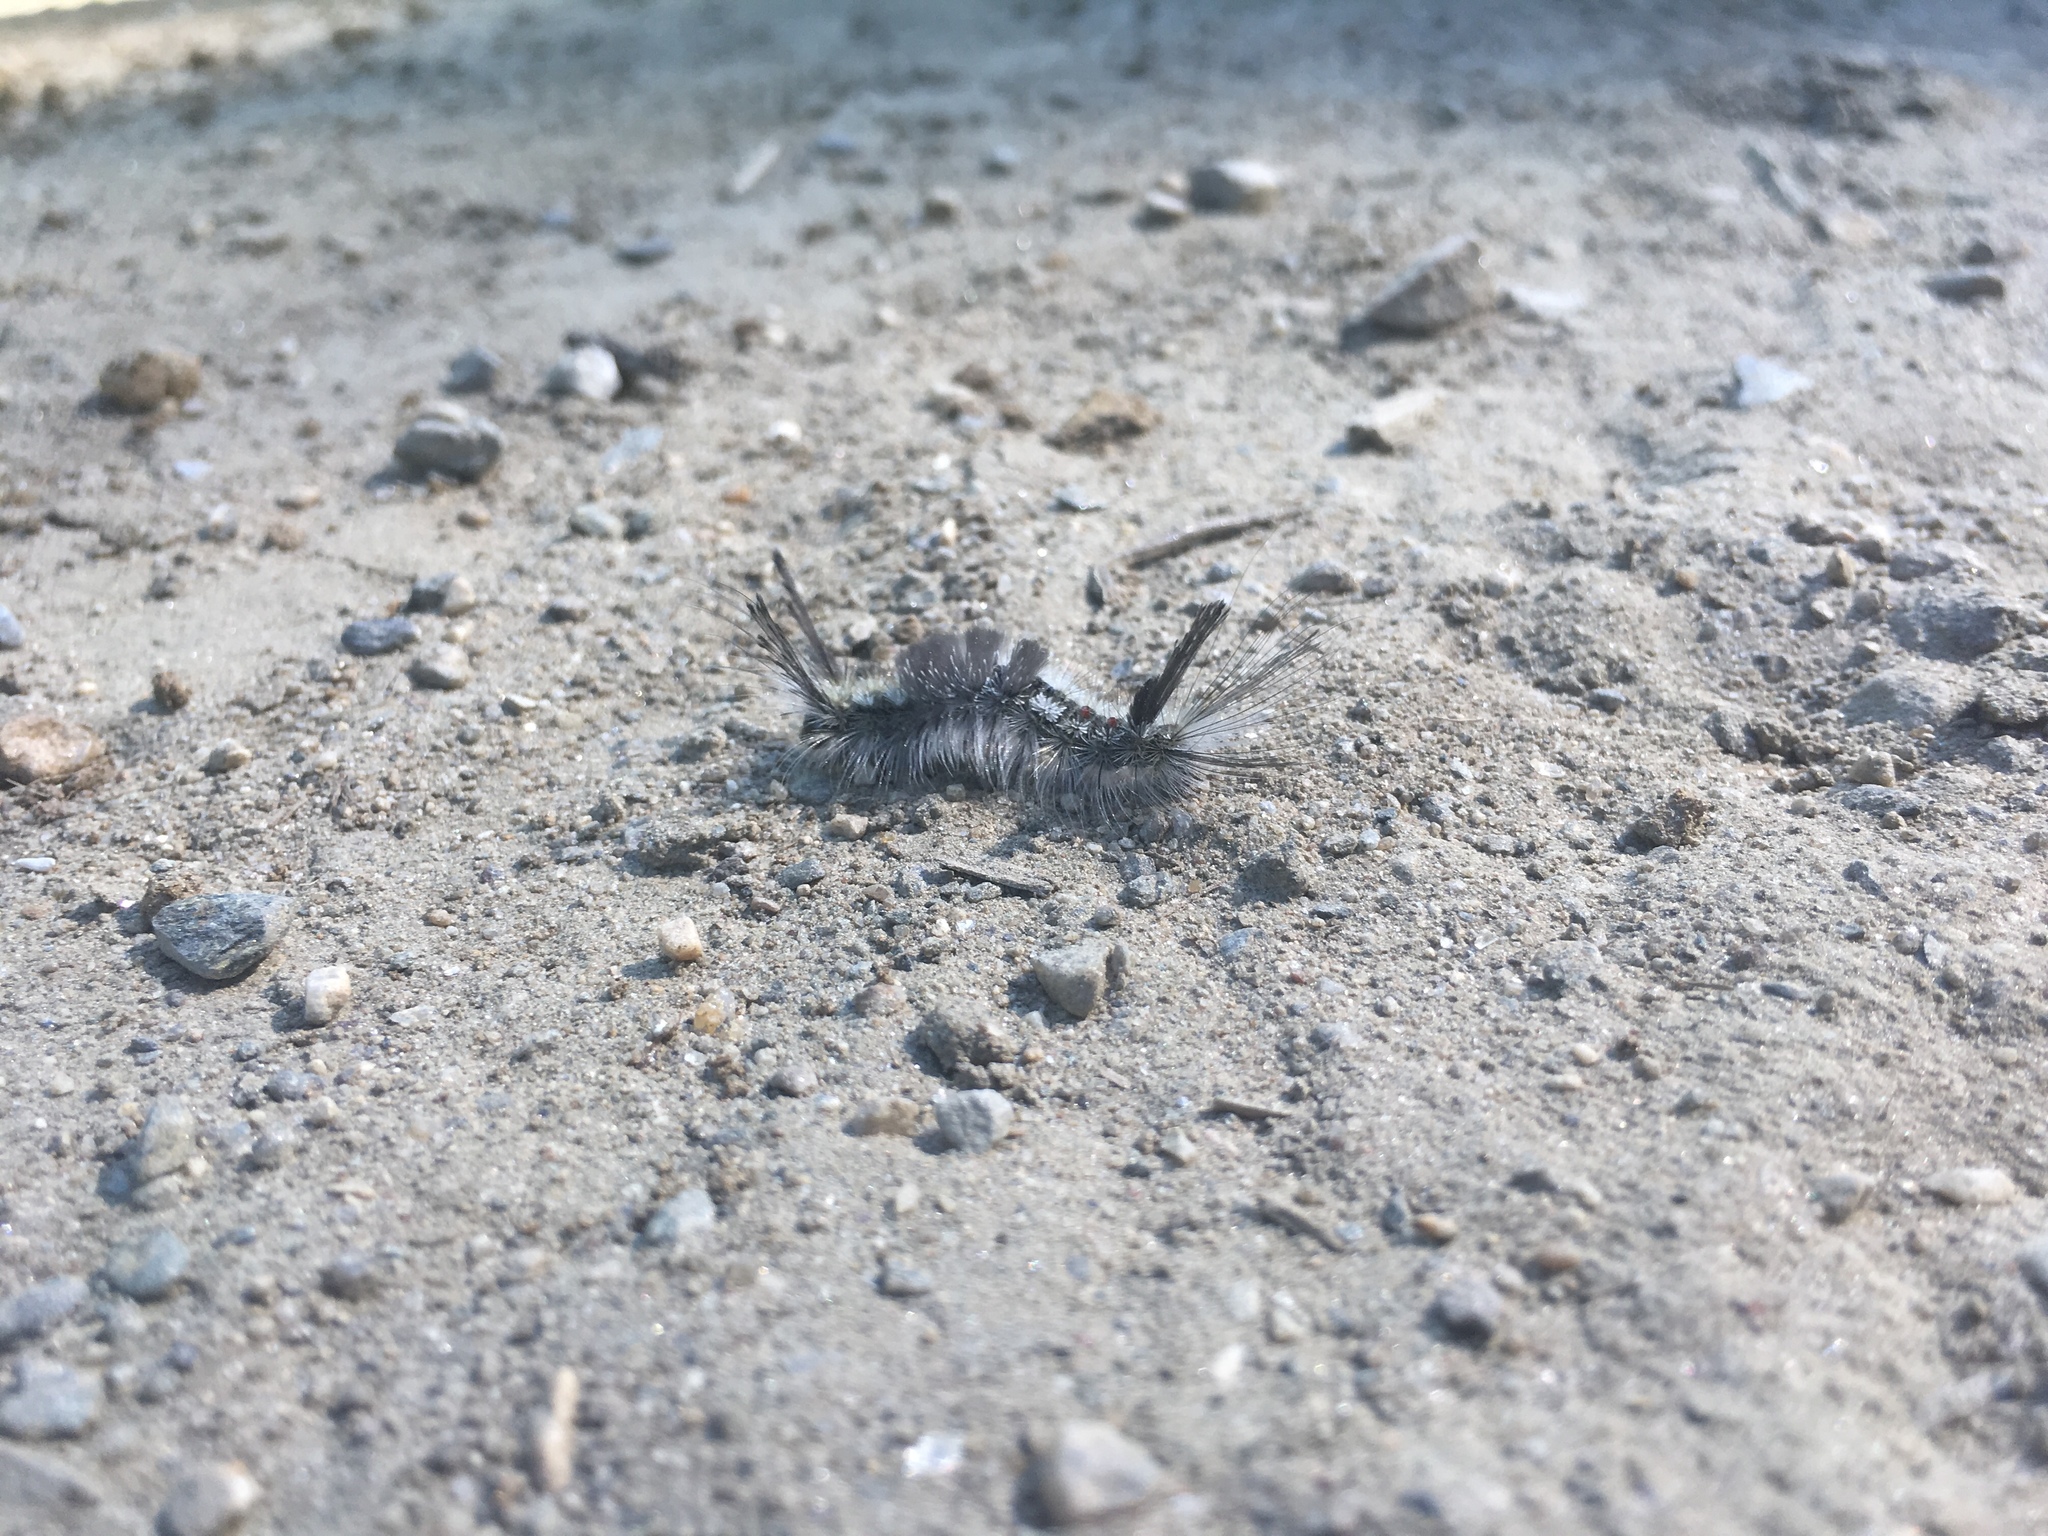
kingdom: Animalia
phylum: Arthropoda
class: Insecta
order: Lepidoptera
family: Erebidae
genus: Dasychira
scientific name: Dasychira plagiata
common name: Northern pine tussock moth
